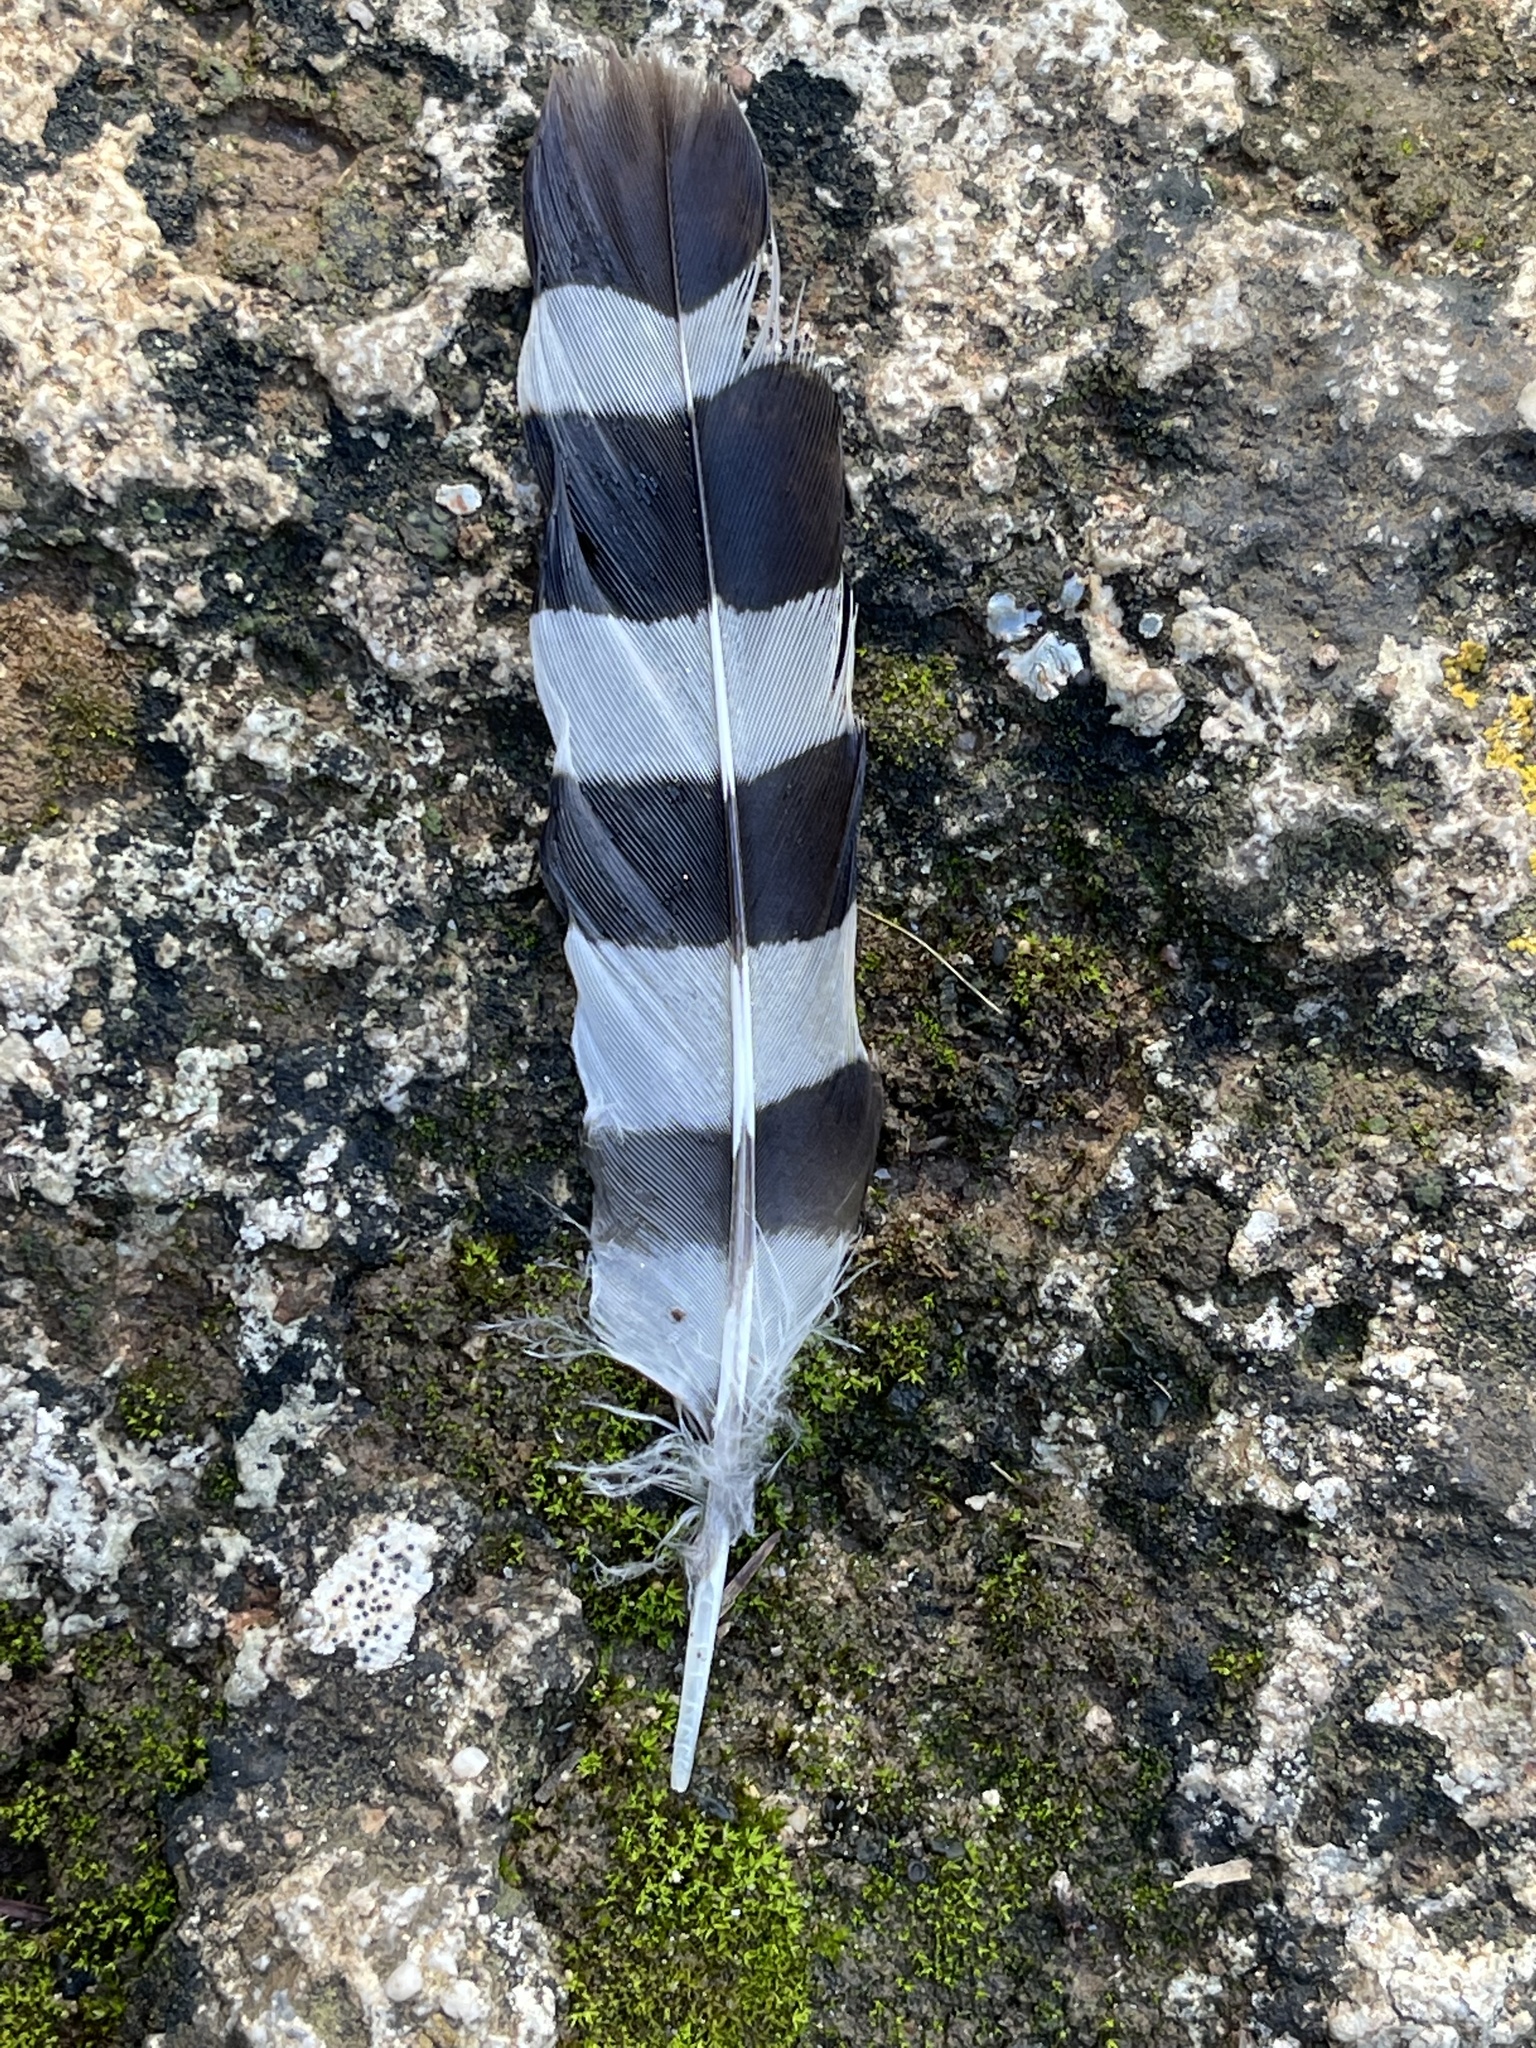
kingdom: Animalia
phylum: Chordata
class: Aves
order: Bucerotiformes
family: Upupidae
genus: Upupa
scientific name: Upupa epops
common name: Eurasian hoopoe
